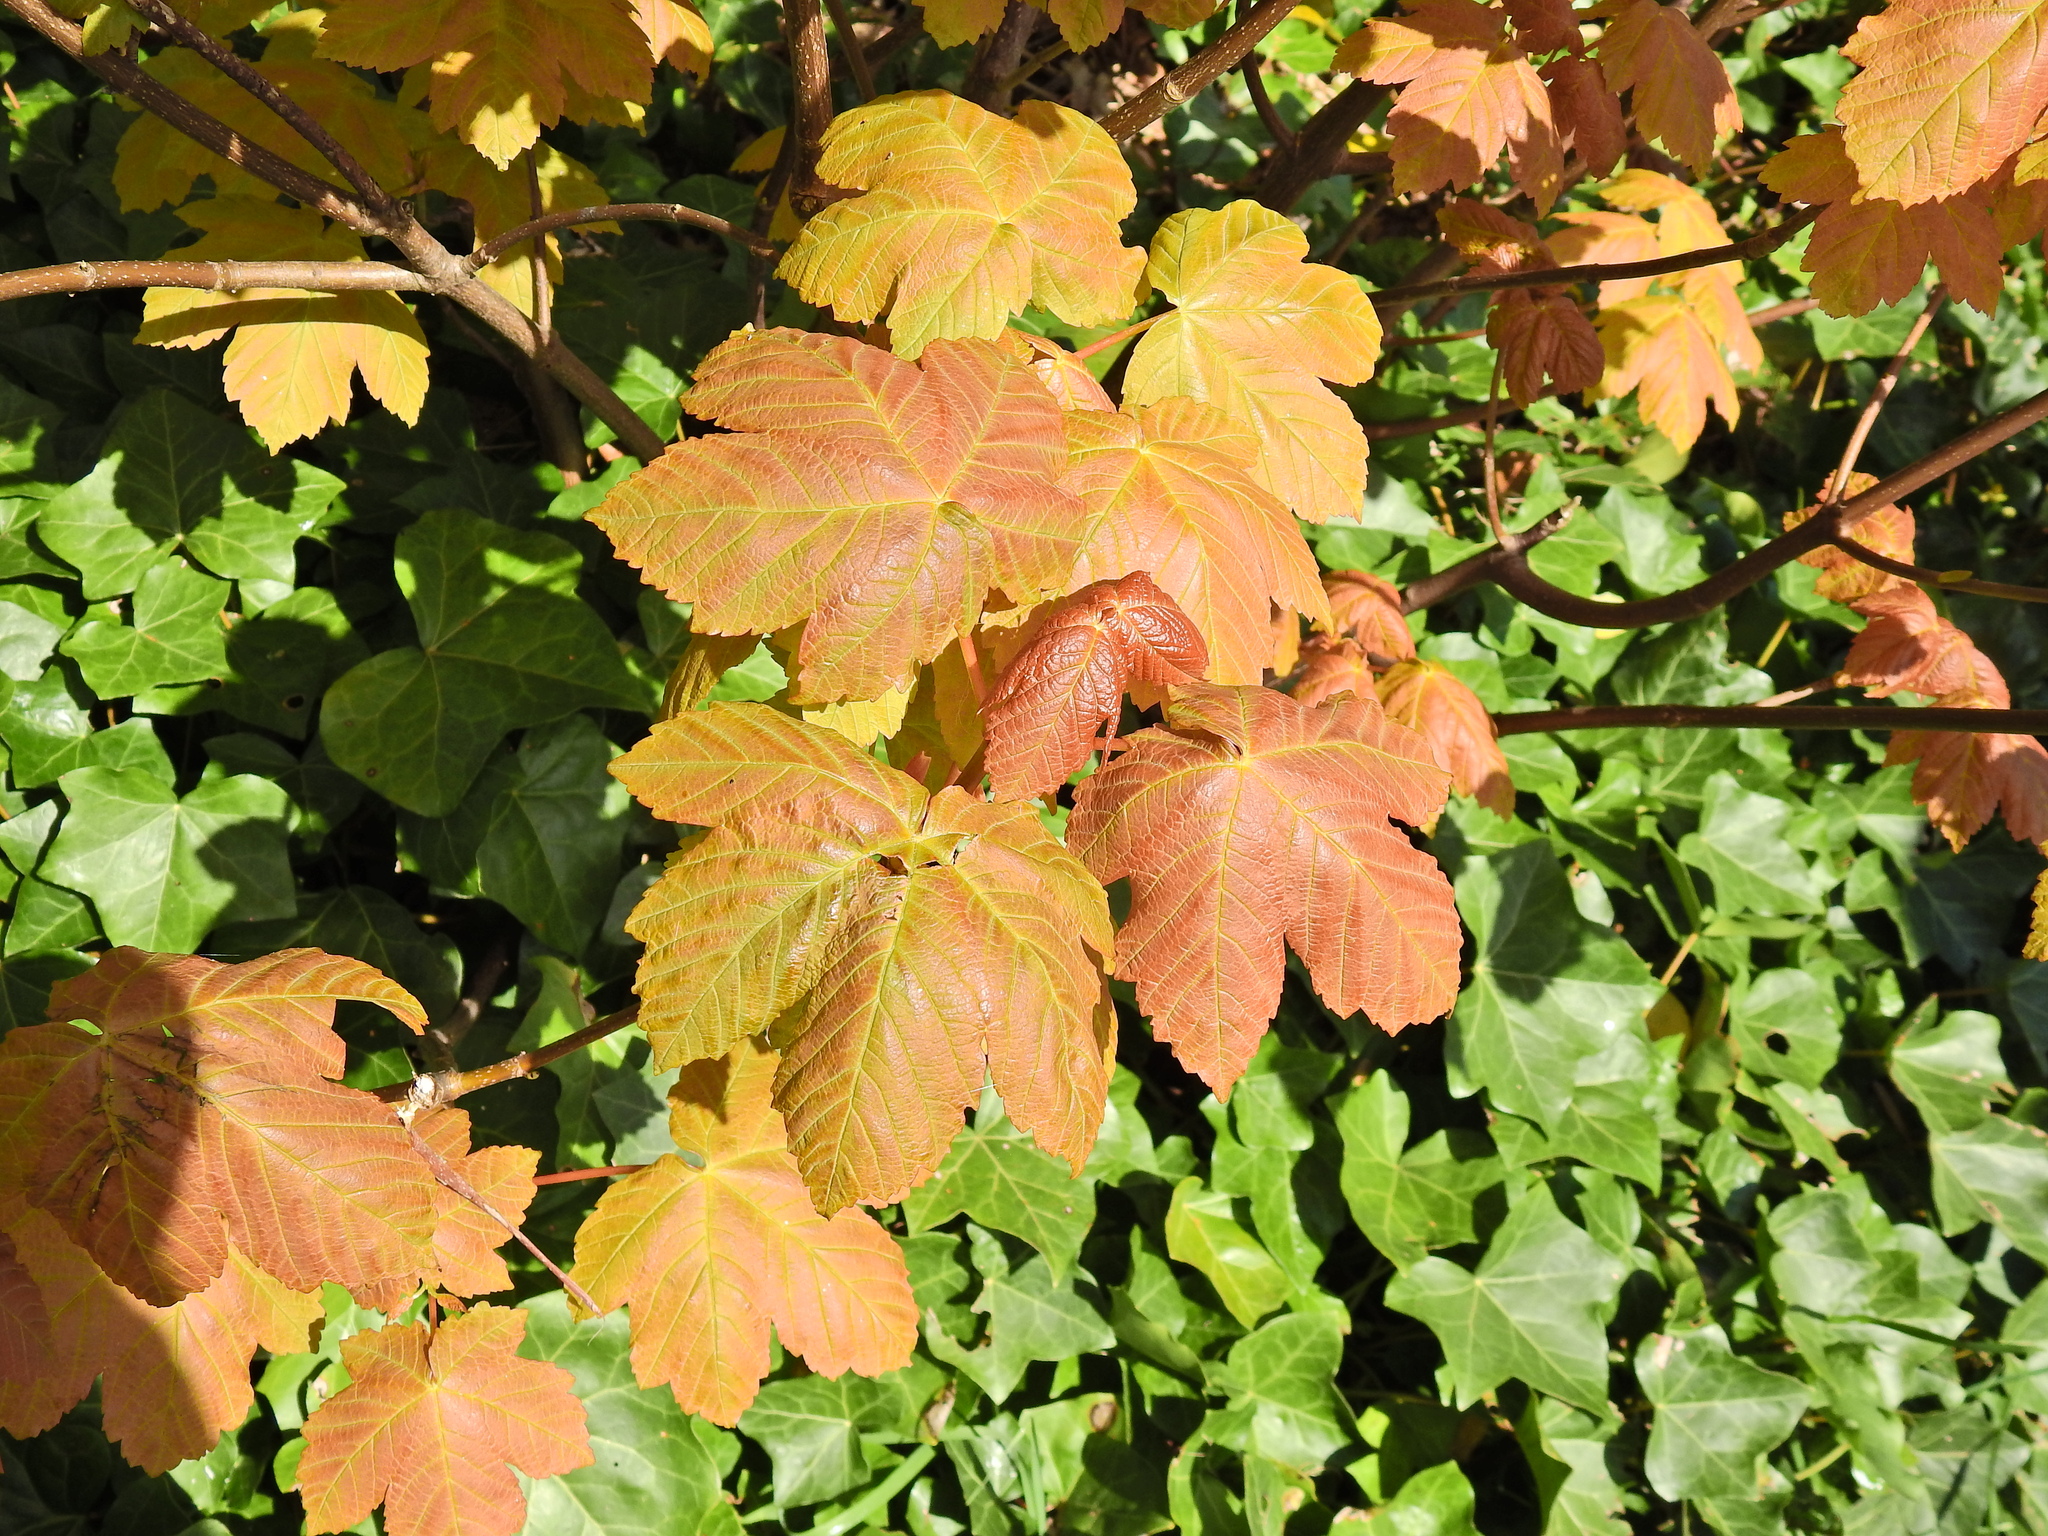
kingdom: Plantae
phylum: Tracheophyta
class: Magnoliopsida
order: Sapindales
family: Sapindaceae
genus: Acer
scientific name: Acer pseudoplatanus
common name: Sycamore
